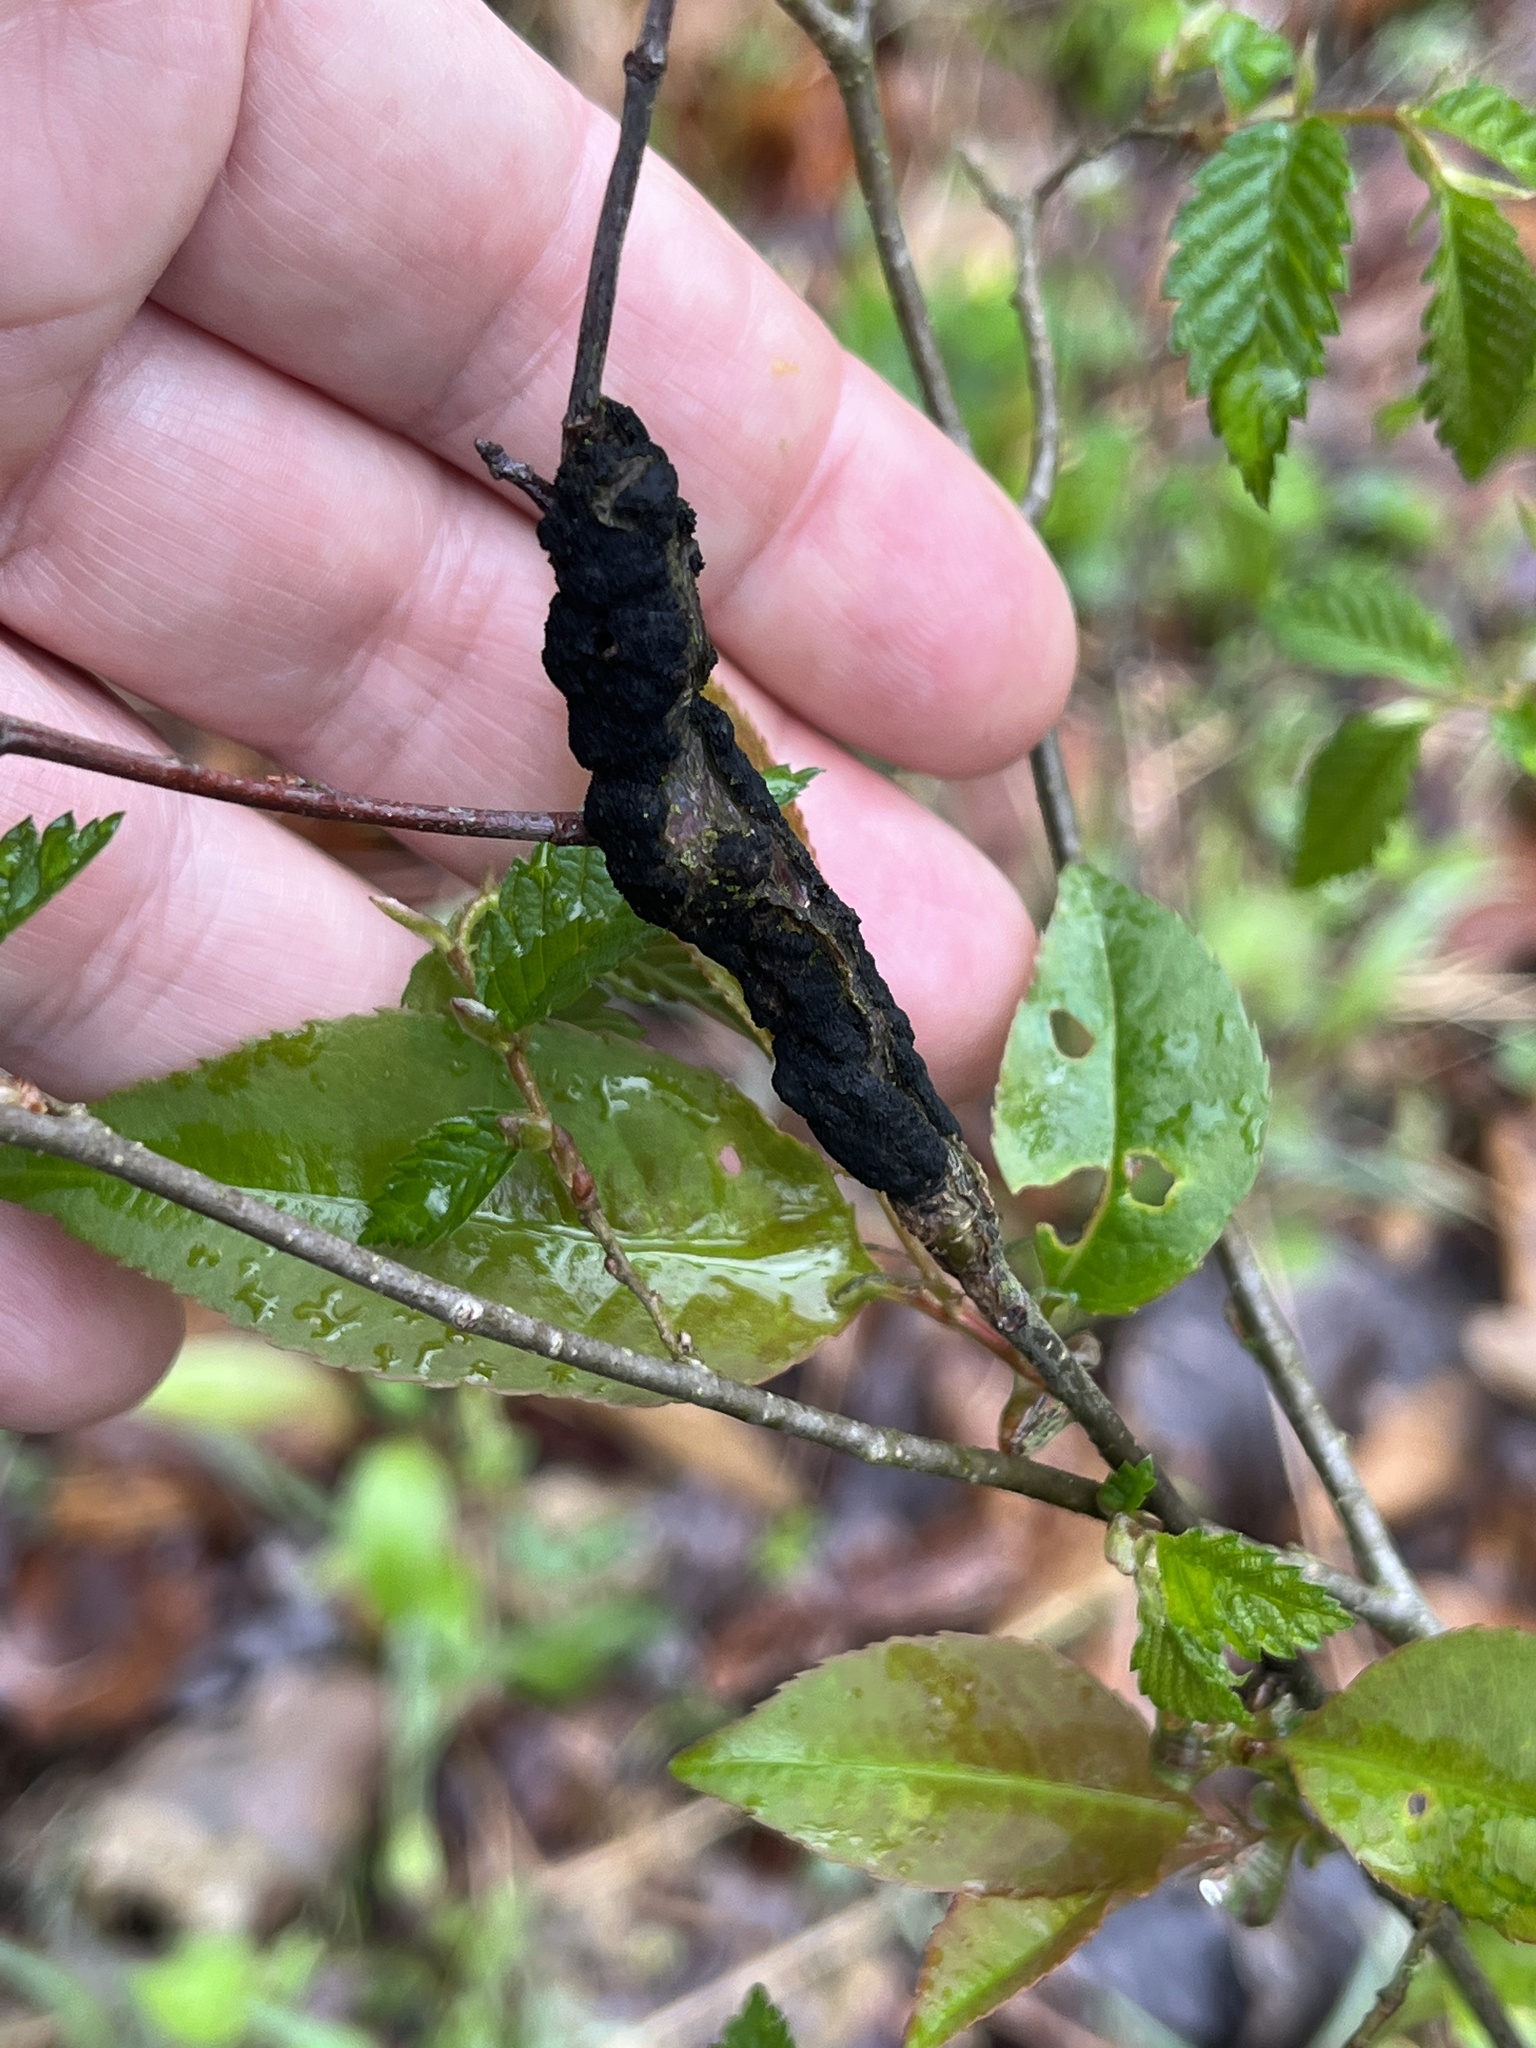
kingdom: Fungi
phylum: Ascomycota
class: Dothideomycetes
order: Venturiales
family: Venturiaceae
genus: Apiosporina
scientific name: Apiosporina morbosa
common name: Black knot
